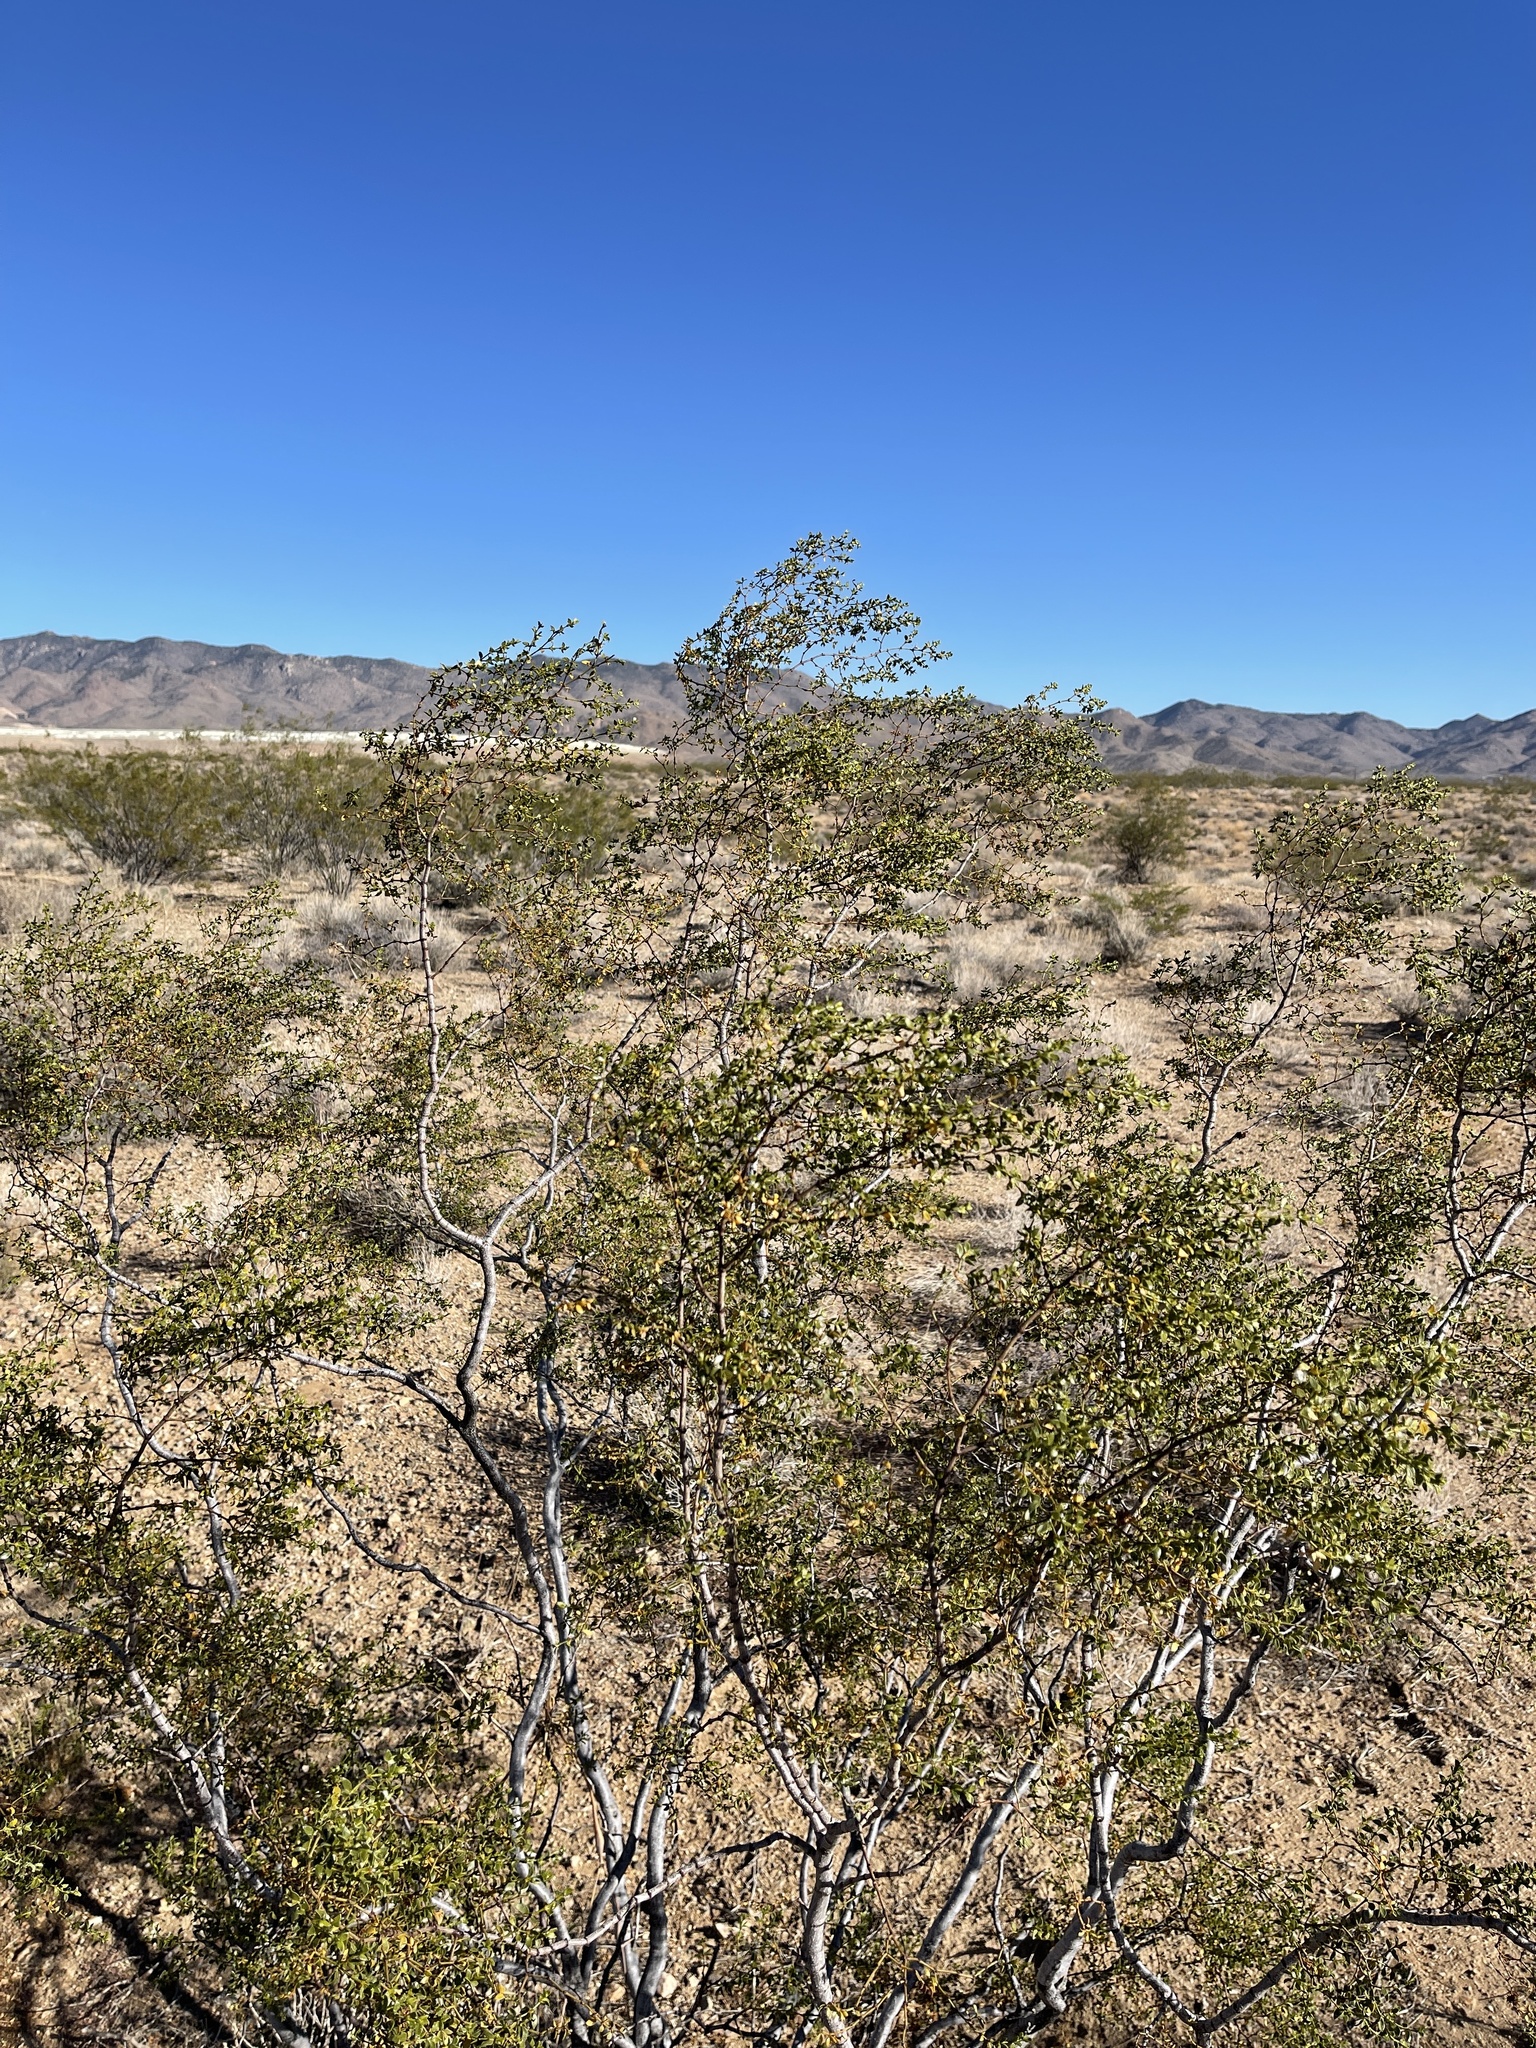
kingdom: Plantae
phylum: Tracheophyta
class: Magnoliopsida
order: Zygophyllales
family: Zygophyllaceae
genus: Larrea
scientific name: Larrea tridentata
